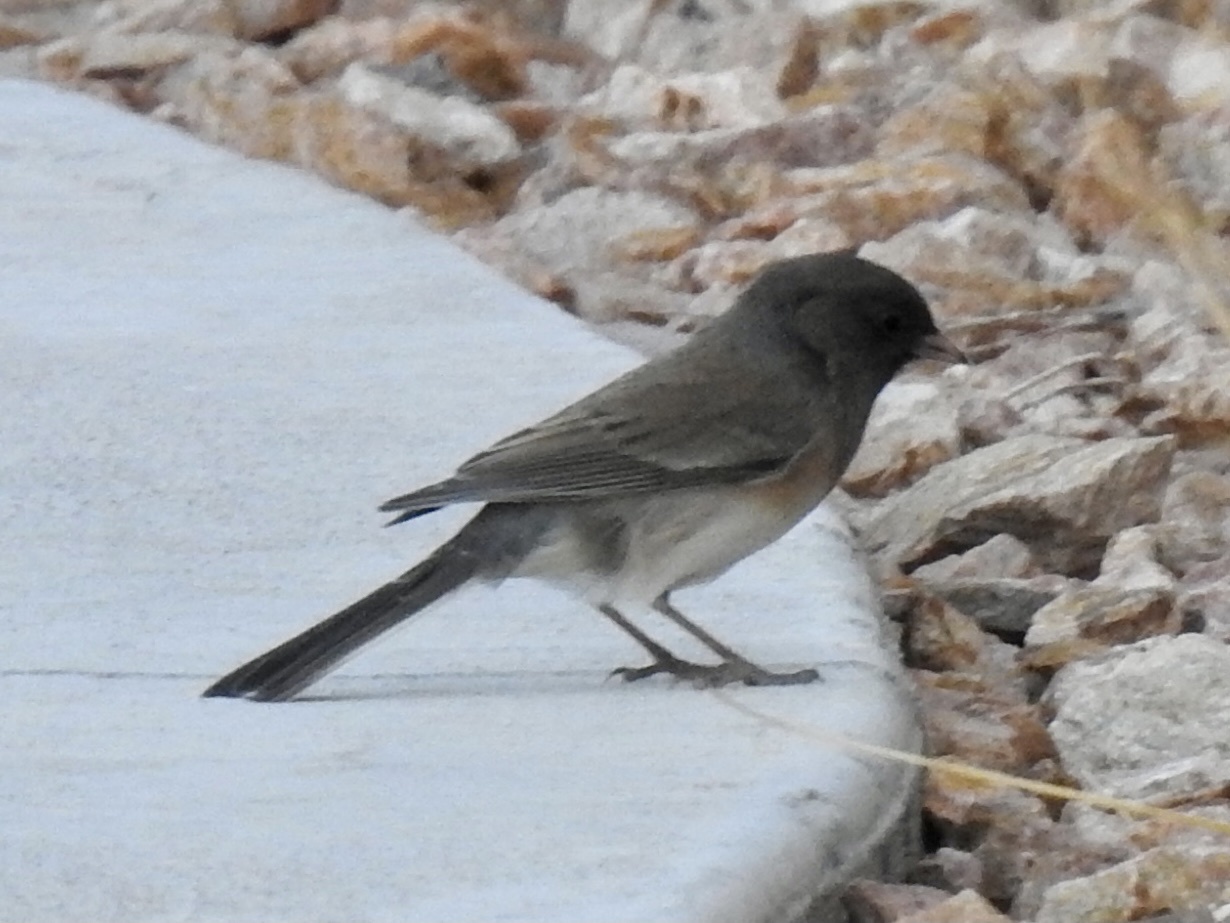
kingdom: Animalia
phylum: Chordata
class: Aves
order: Passeriformes
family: Passerellidae
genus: Junco
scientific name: Junco hyemalis
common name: Dark-eyed junco
